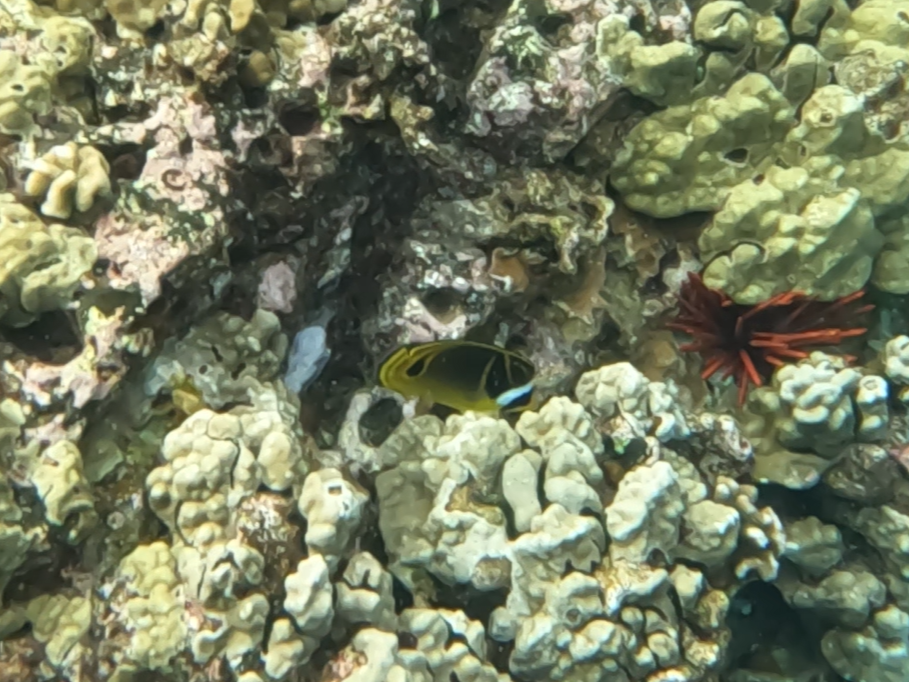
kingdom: Animalia
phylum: Chordata
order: Perciformes
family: Chaetodontidae
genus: Chaetodon
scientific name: Chaetodon lunula
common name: Raccoon butterflyfish
